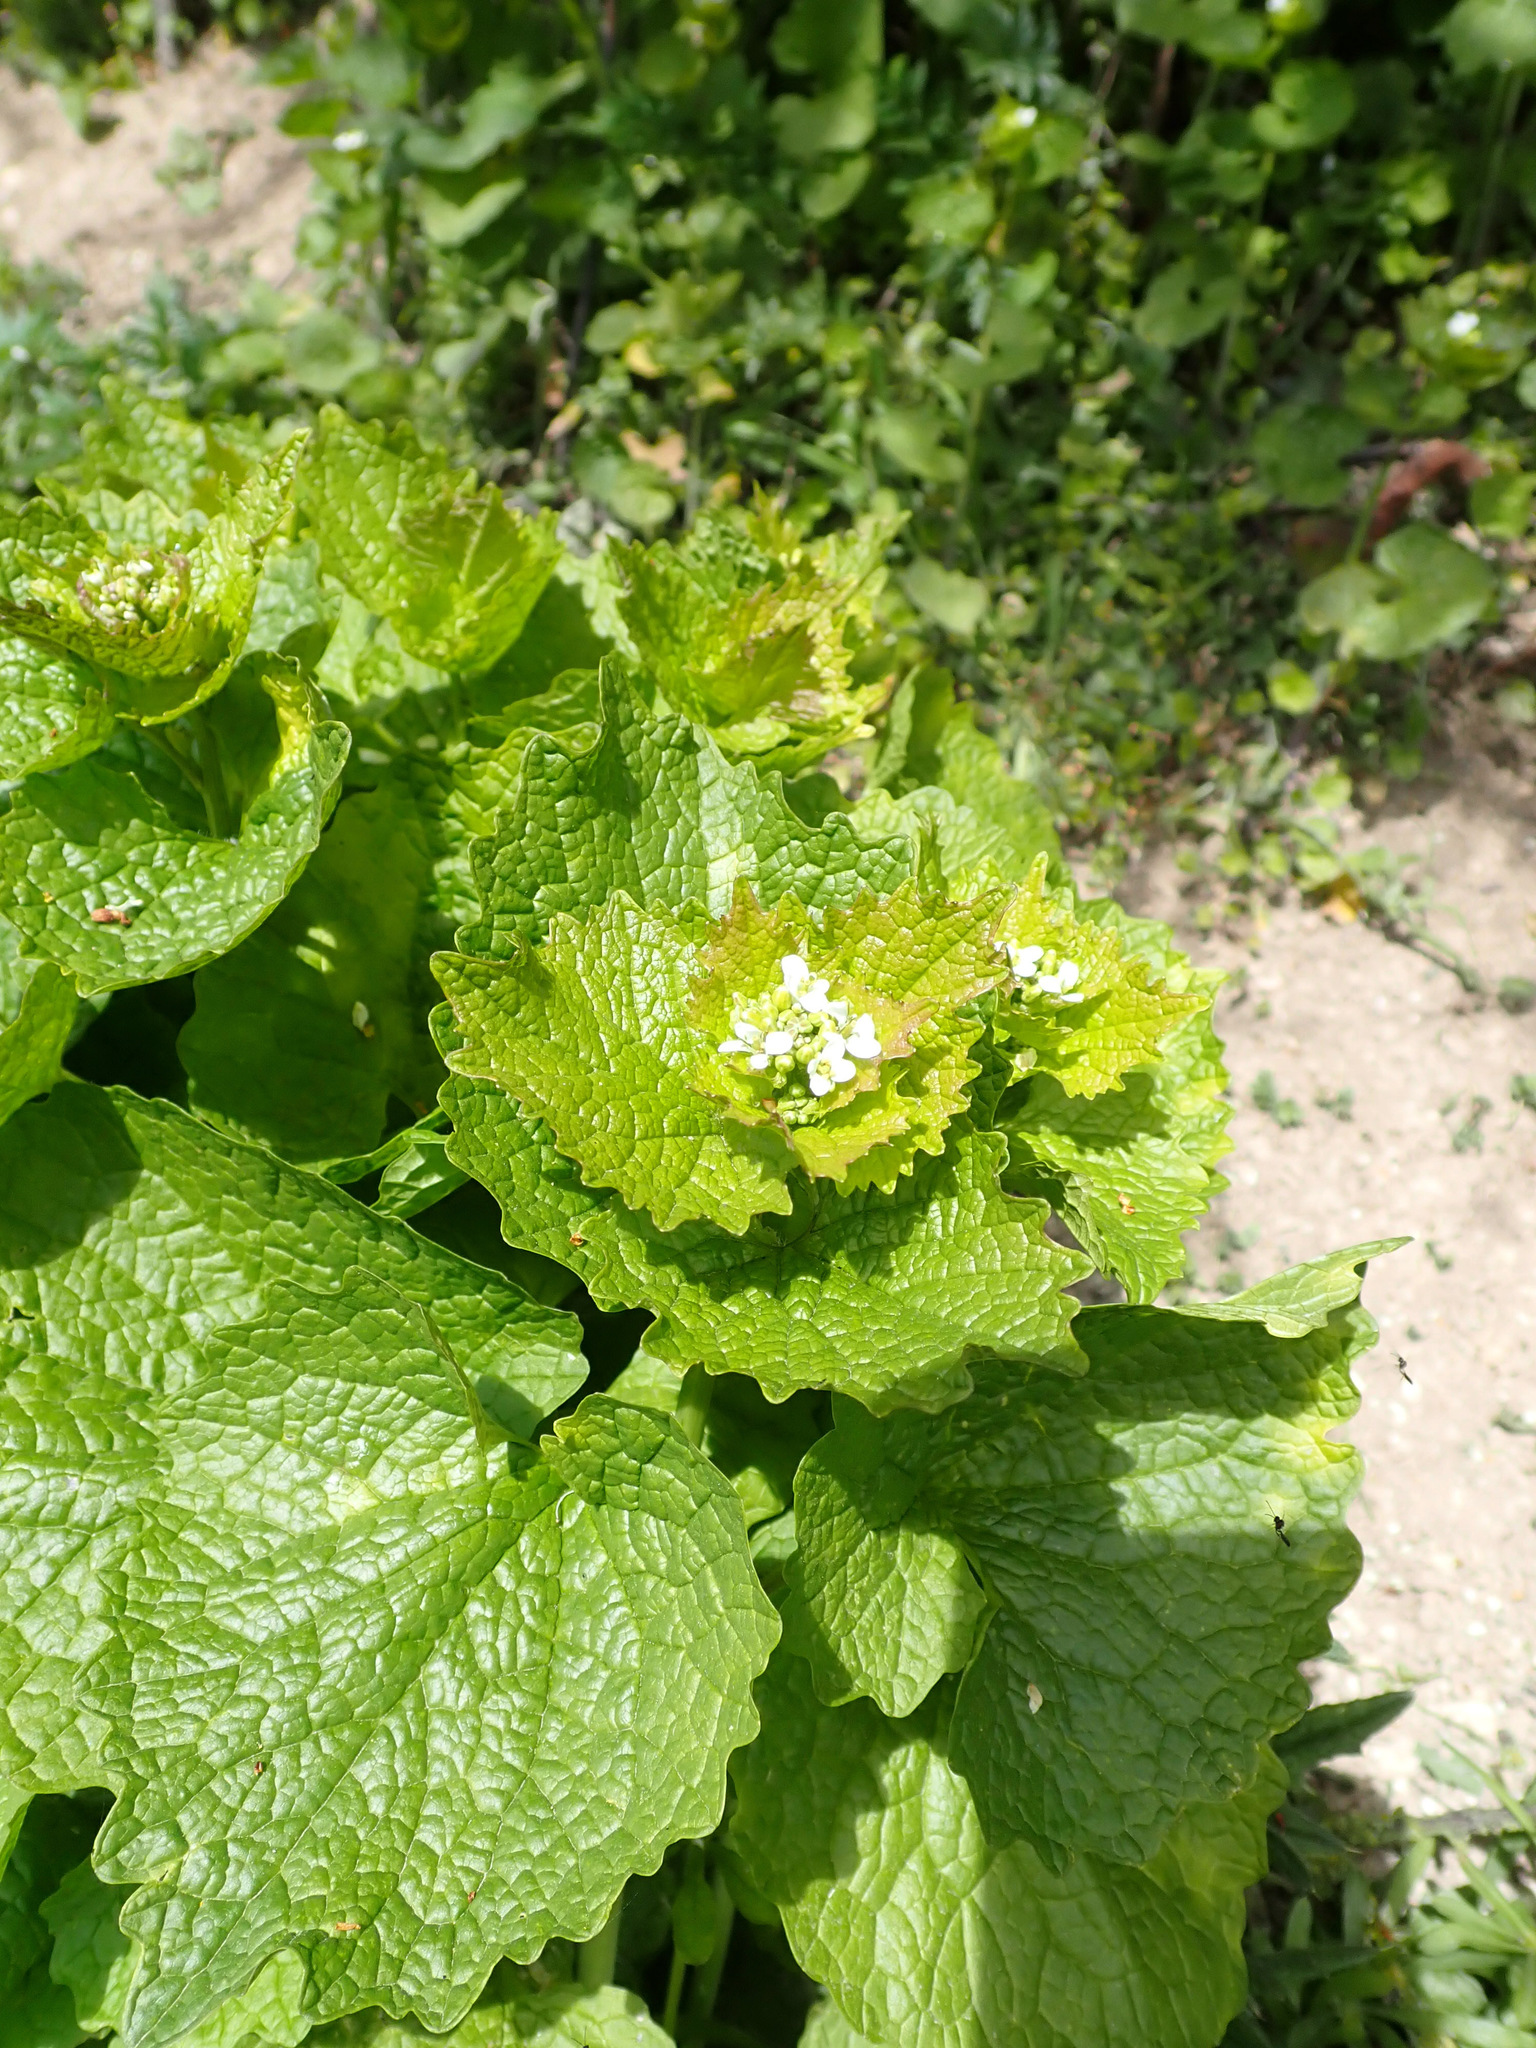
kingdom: Plantae
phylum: Tracheophyta
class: Magnoliopsida
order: Brassicales
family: Brassicaceae
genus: Alliaria
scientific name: Alliaria petiolata
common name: Garlic mustard
